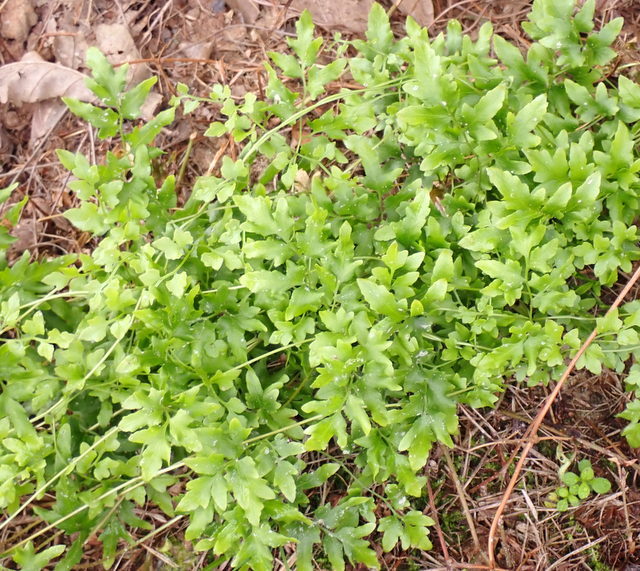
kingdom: Plantae
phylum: Tracheophyta
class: Polypodiopsida
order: Schizaeales
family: Lygodiaceae
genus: Lygodium
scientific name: Lygodium japonicum
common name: Japanese climbing fern
